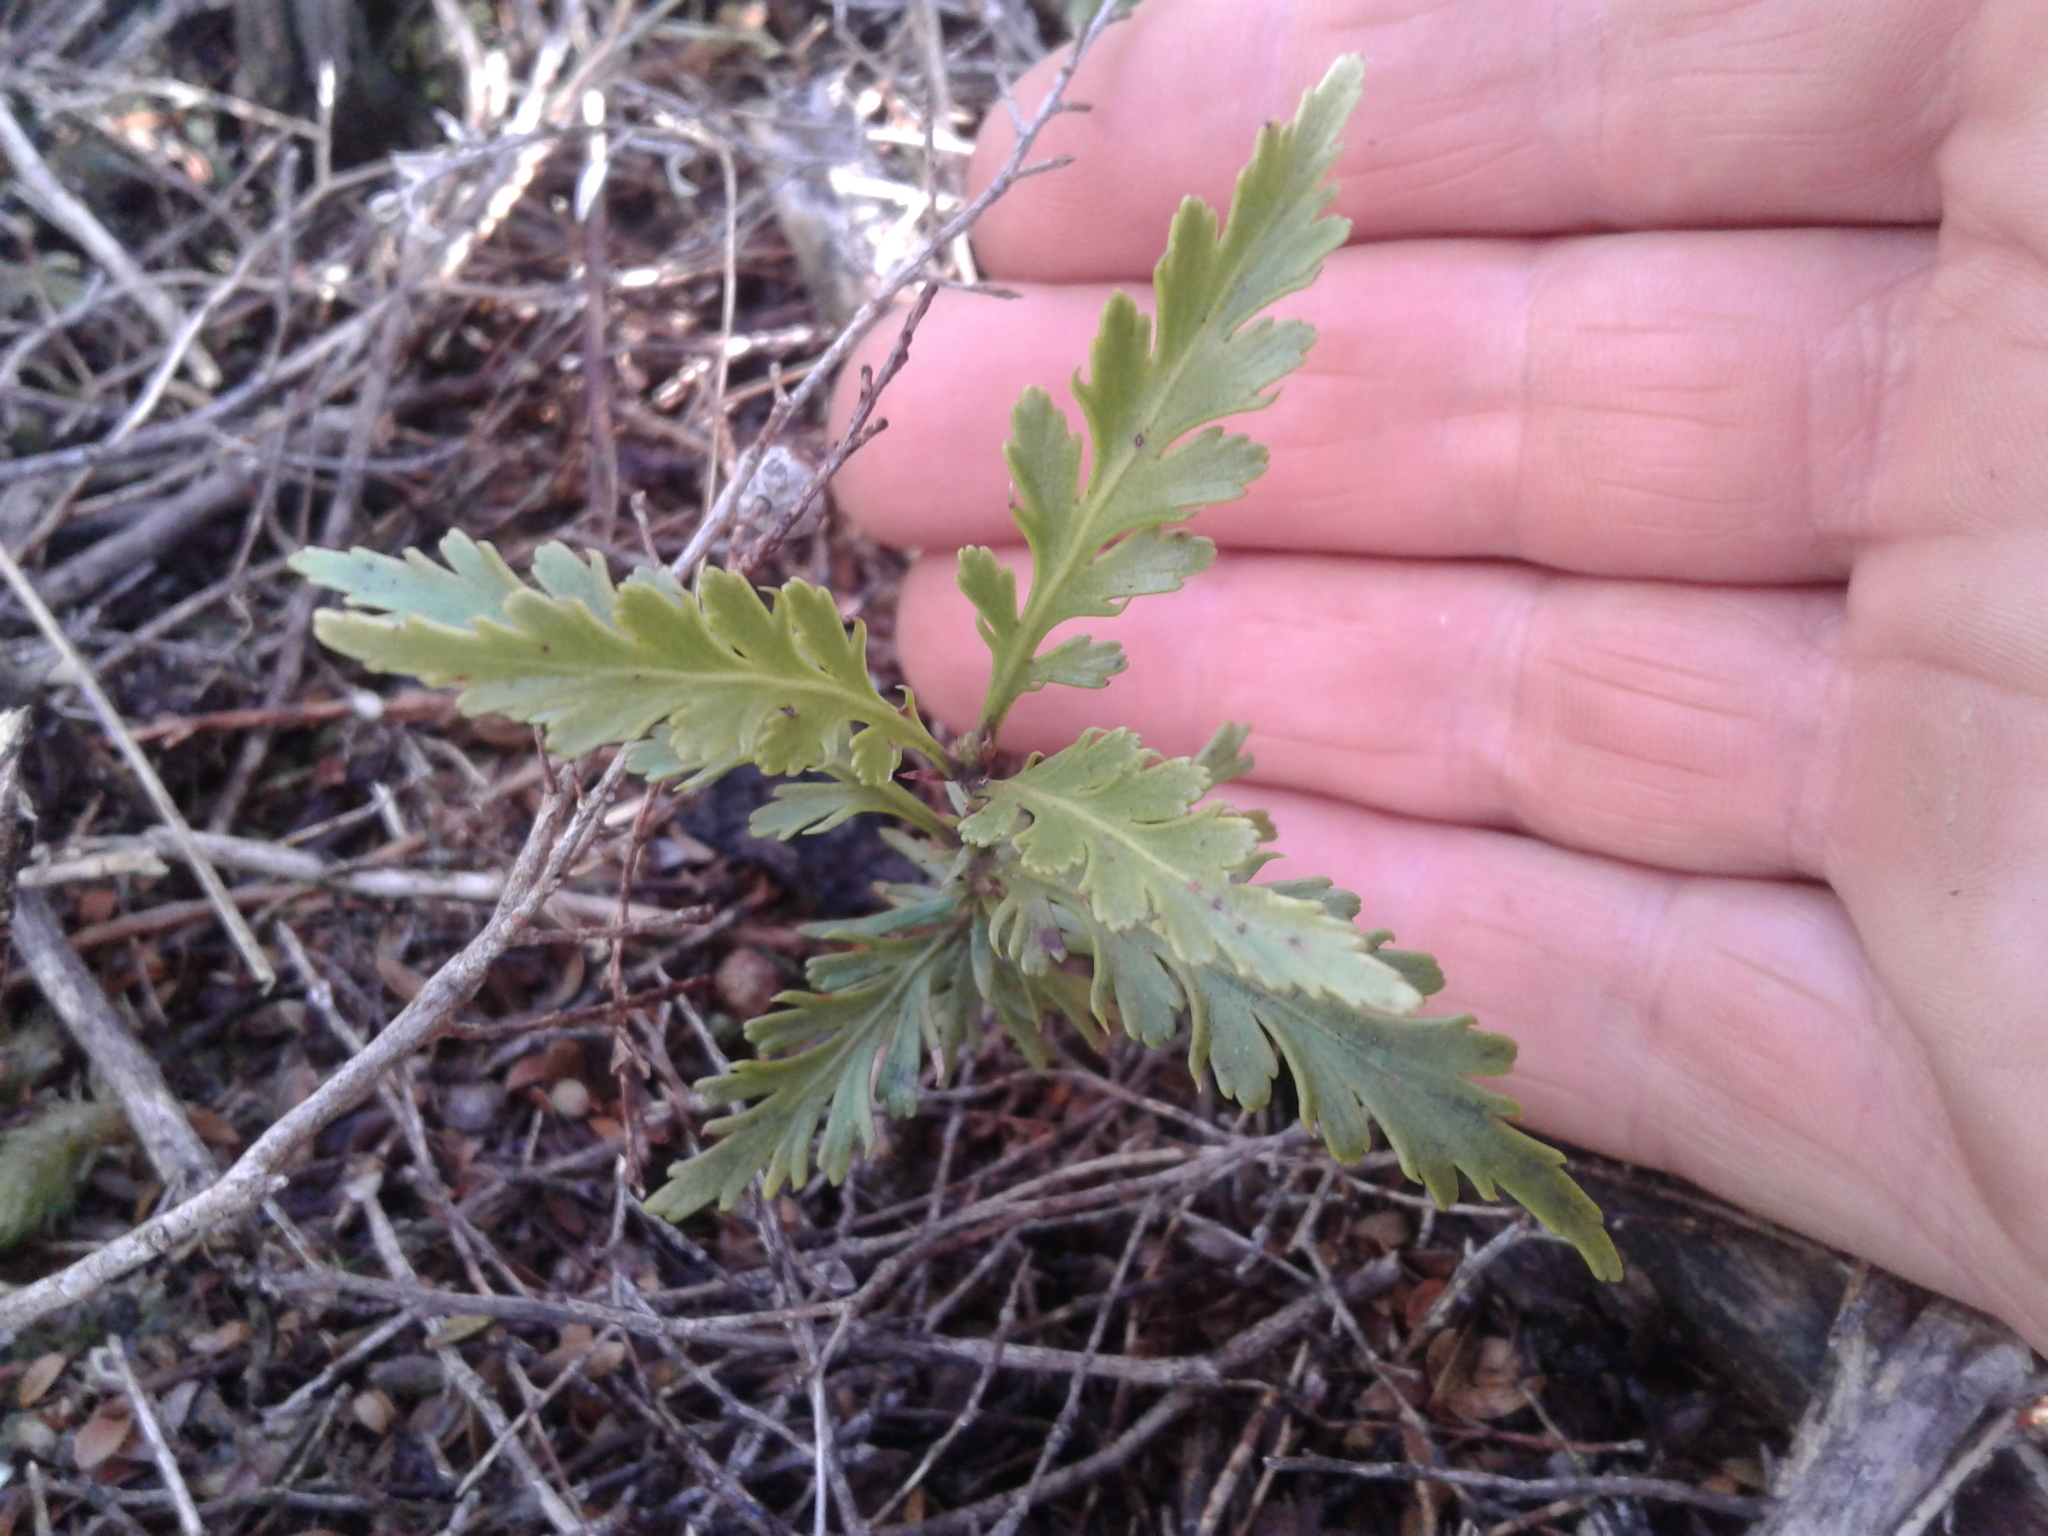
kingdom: Plantae
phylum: Tracheophyta
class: Pinopsida
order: Pinales
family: Phyllocladaceae
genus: Phyllocladus
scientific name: Phyllocladus trichomanoides
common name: Celery pine
